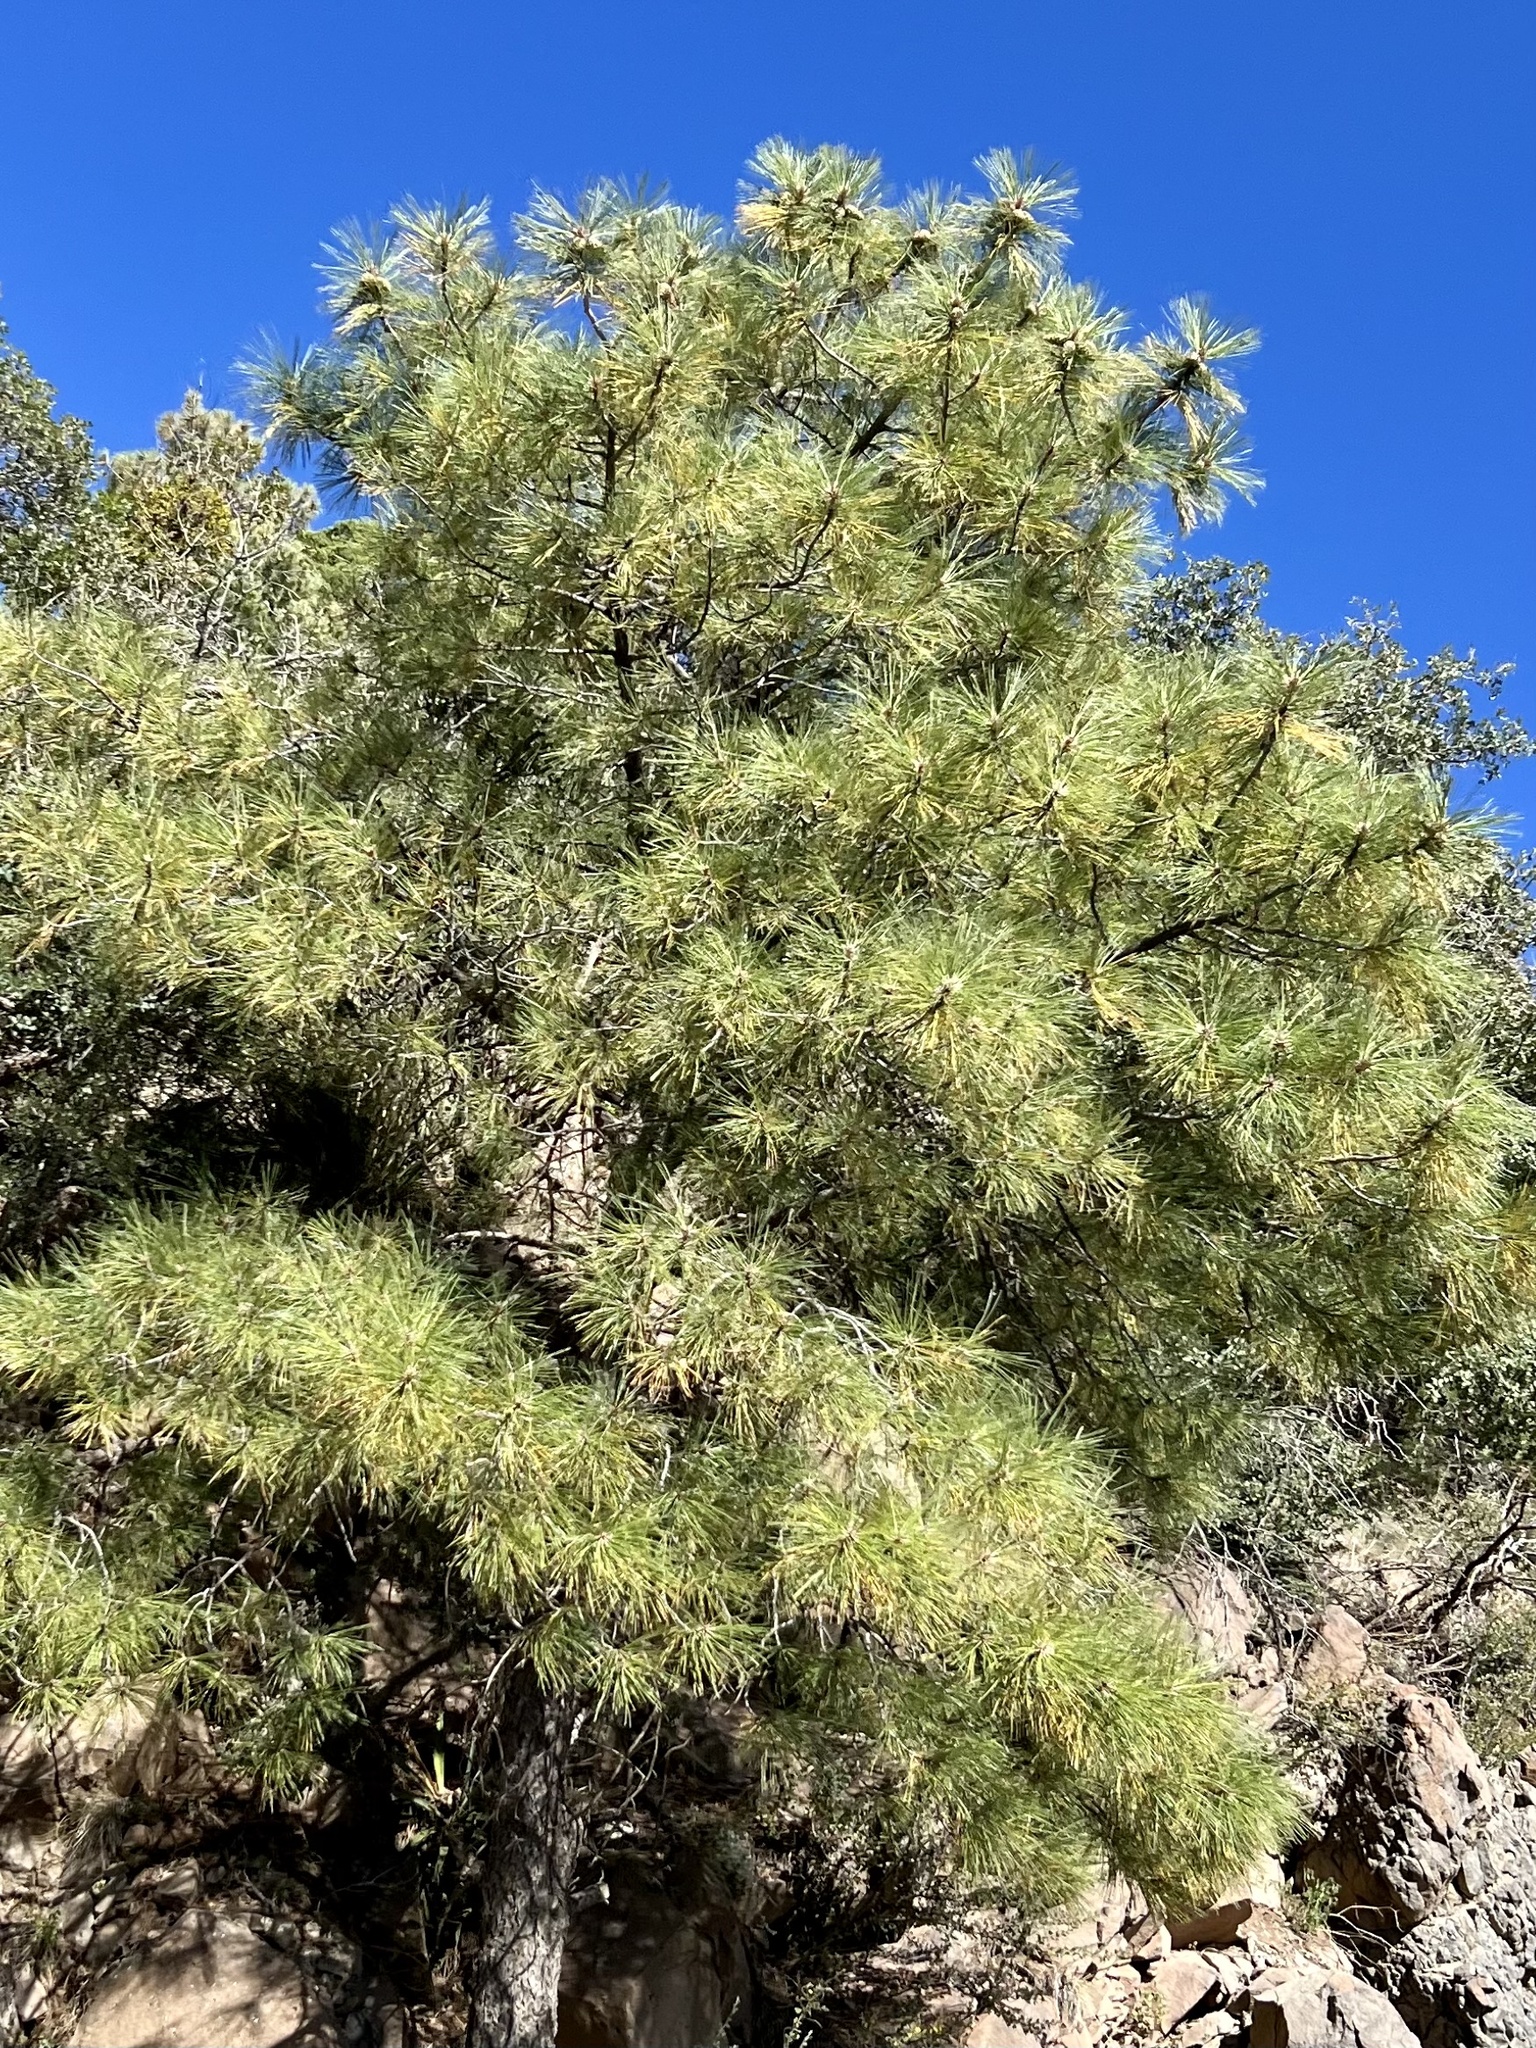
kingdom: Plantae
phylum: Tracheophyta
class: Pinopsida
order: Pinales
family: Pinaceae
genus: Pinus
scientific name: Pinus ponderosa
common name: Western yellow-pine
